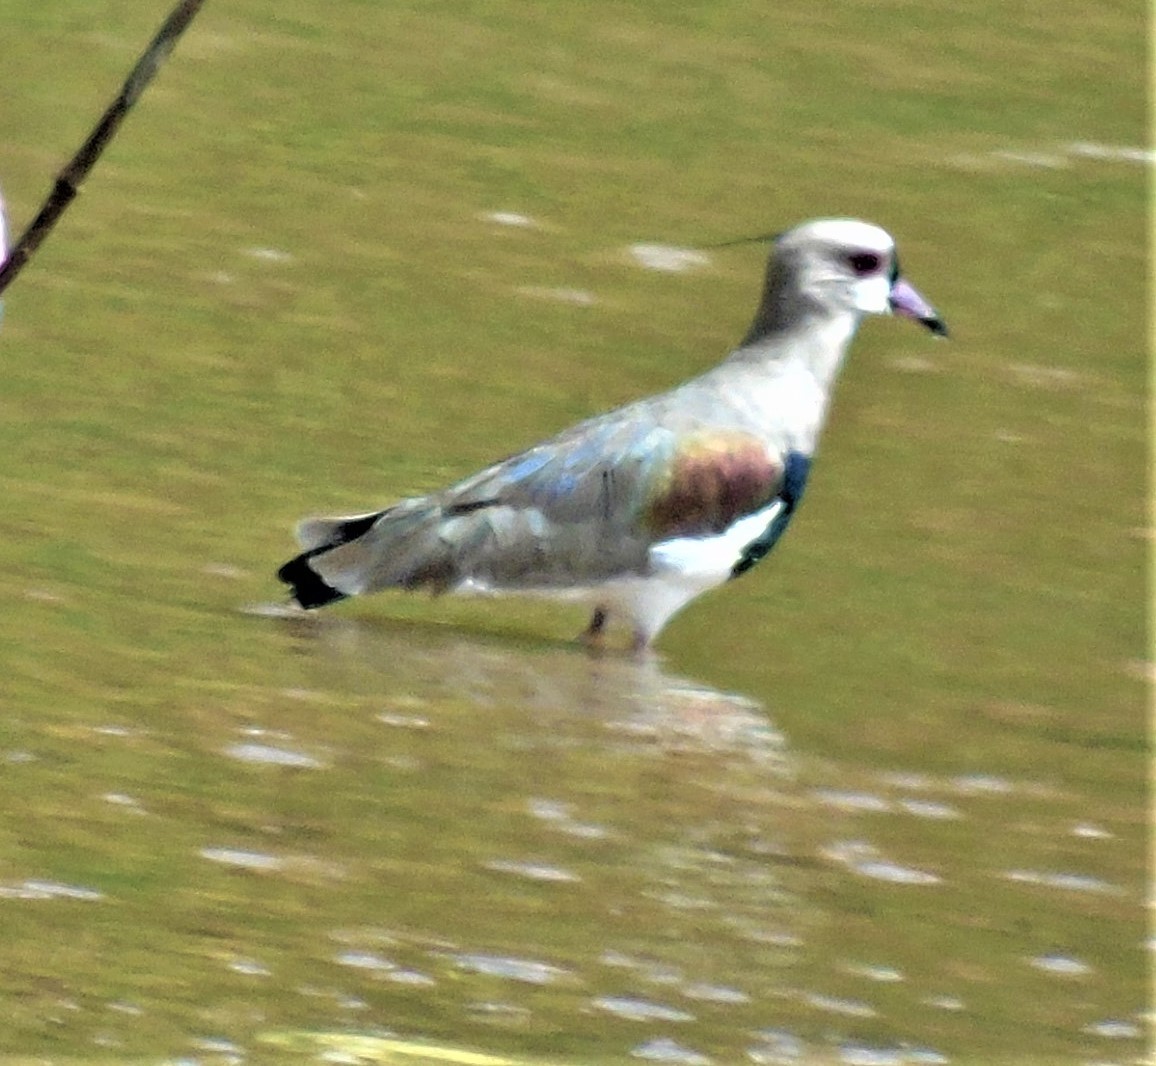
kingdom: Animalia
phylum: Chordata
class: Aves
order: Charadriiformes
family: Charadriidae
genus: Vanellus
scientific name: Vanellus chilensis
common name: Southern lapwing
